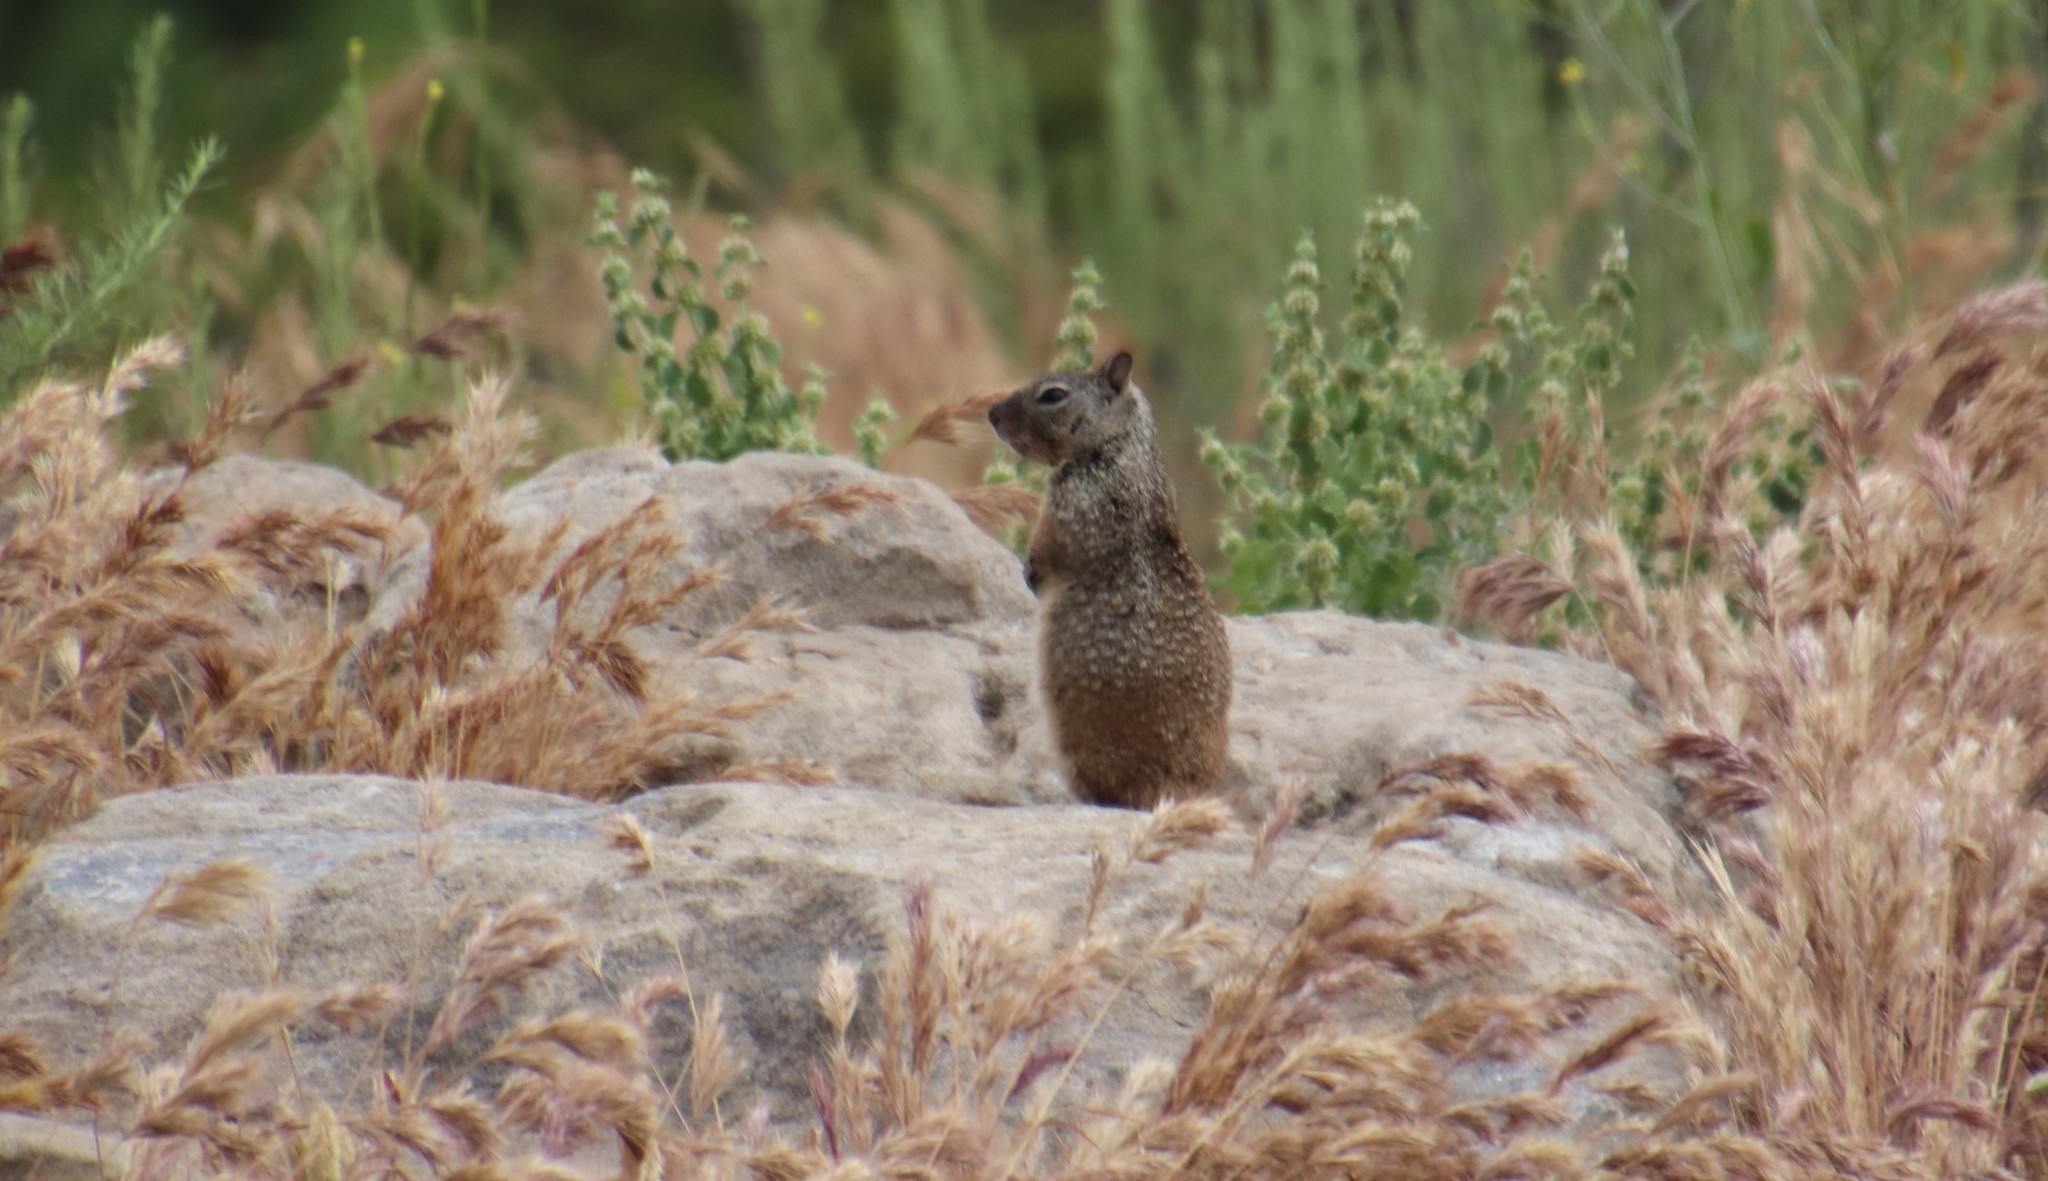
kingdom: Animalia
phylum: Chordata
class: Mammalia
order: Rodentia
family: Sciuridae
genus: Otospermophilus
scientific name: Otospermophilus beecheyi
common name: California ground squirrel
